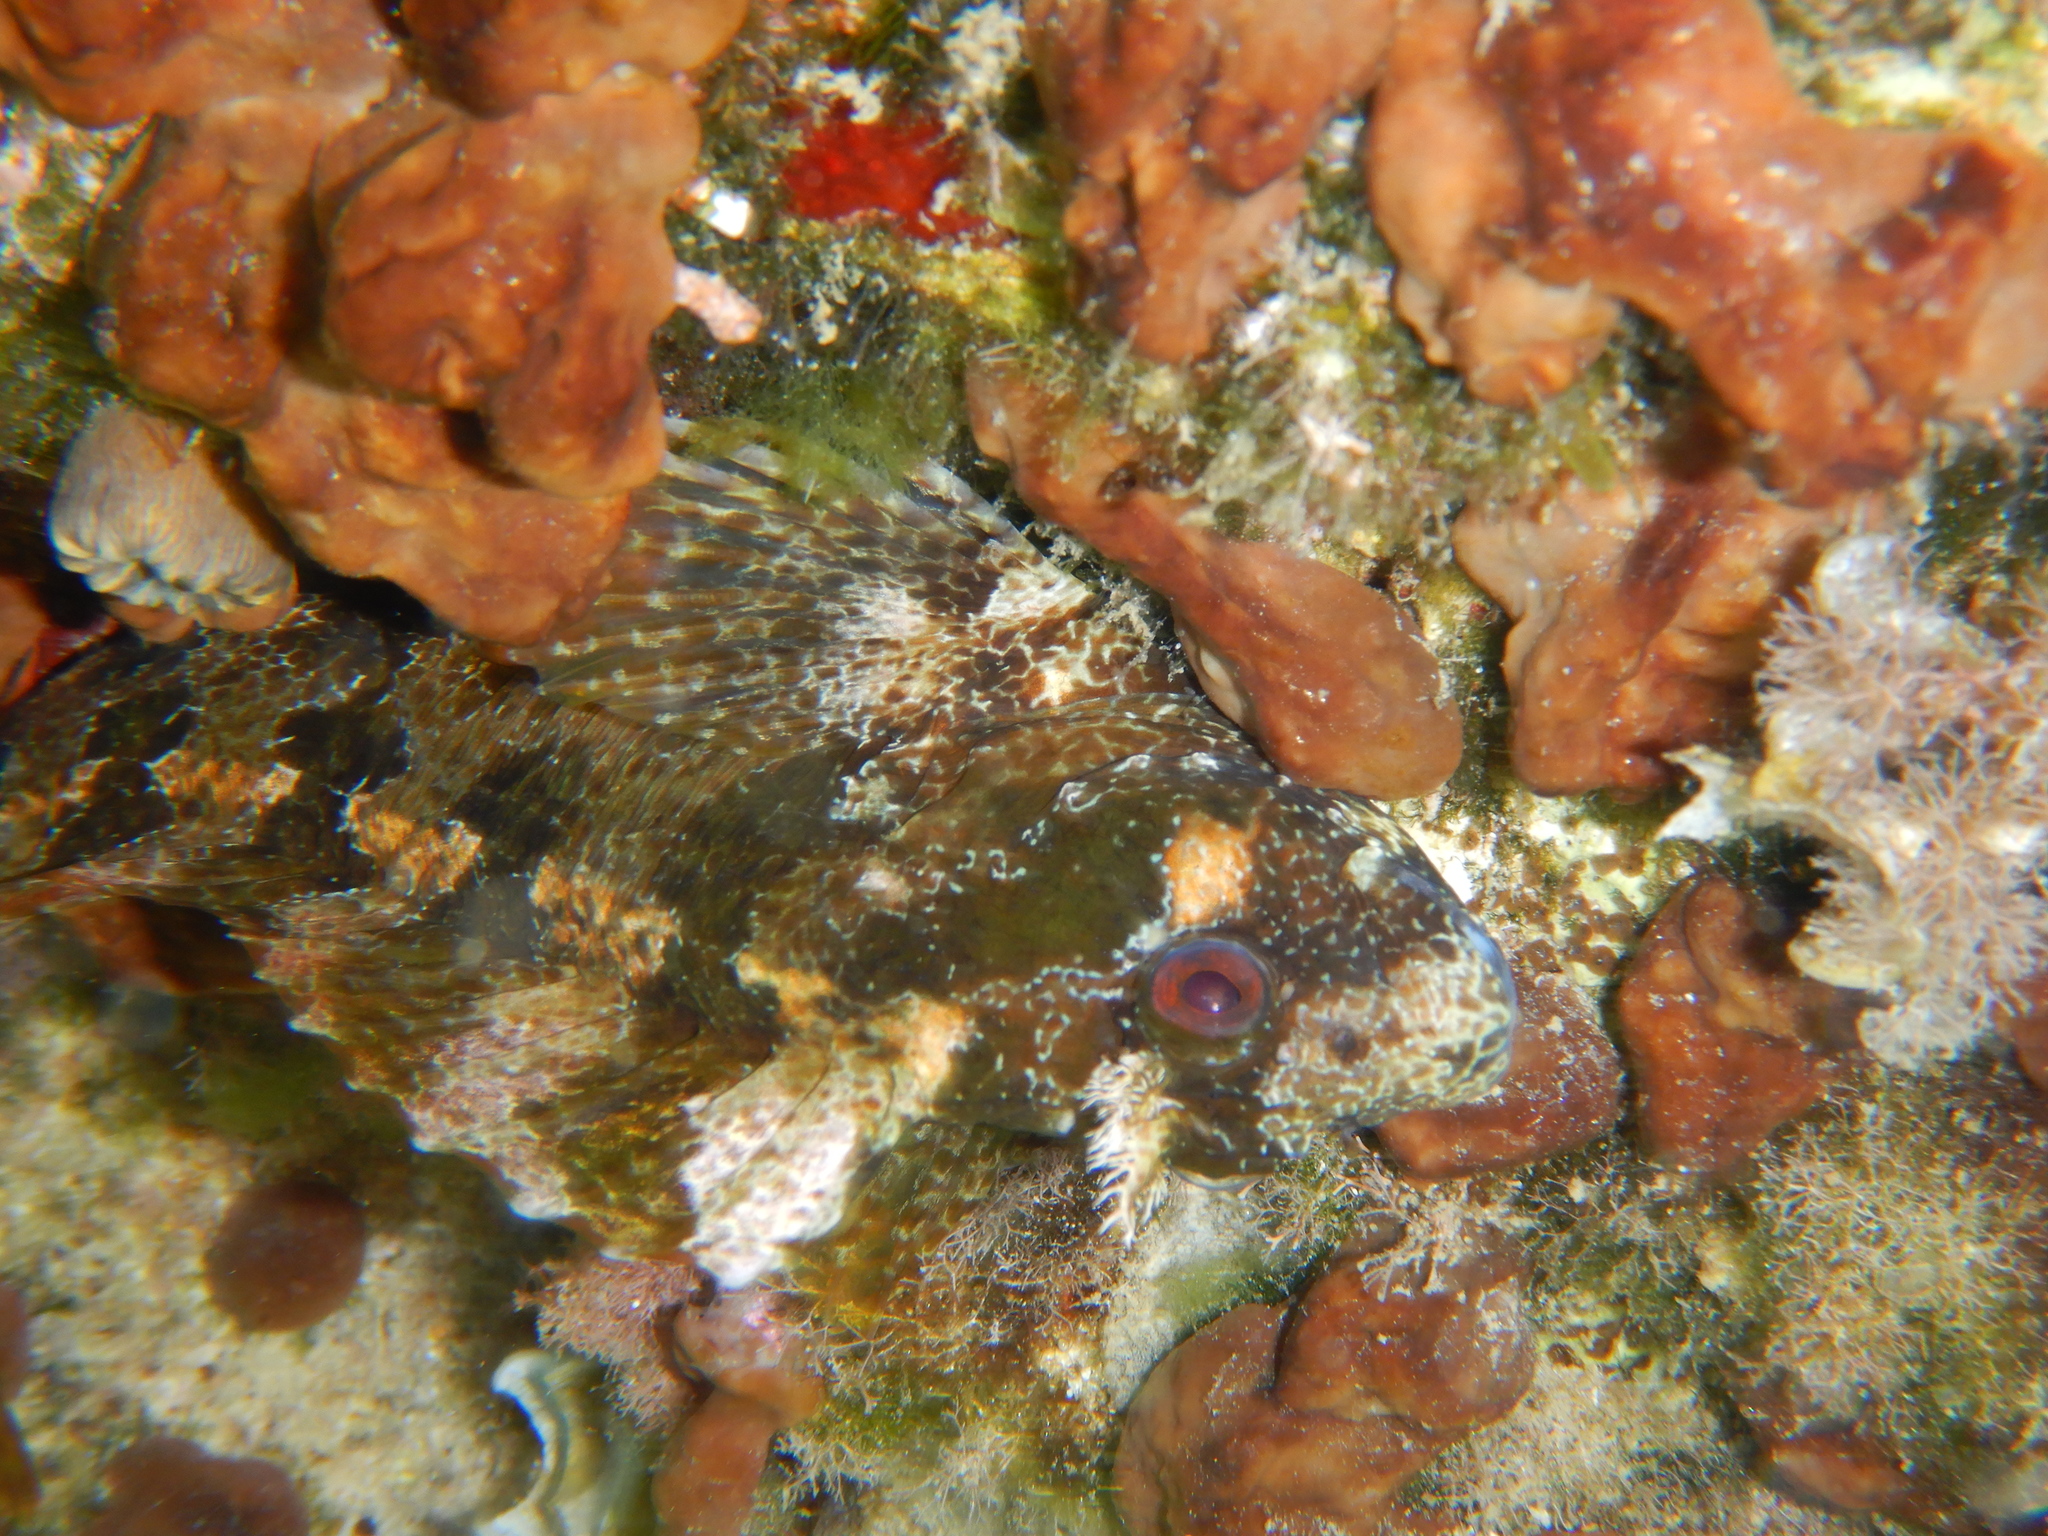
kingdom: Animalia
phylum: Chordata
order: Perciformes
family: Blenniidae
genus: Parablennius
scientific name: Parablennius gattorugine
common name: Tompot blenny
